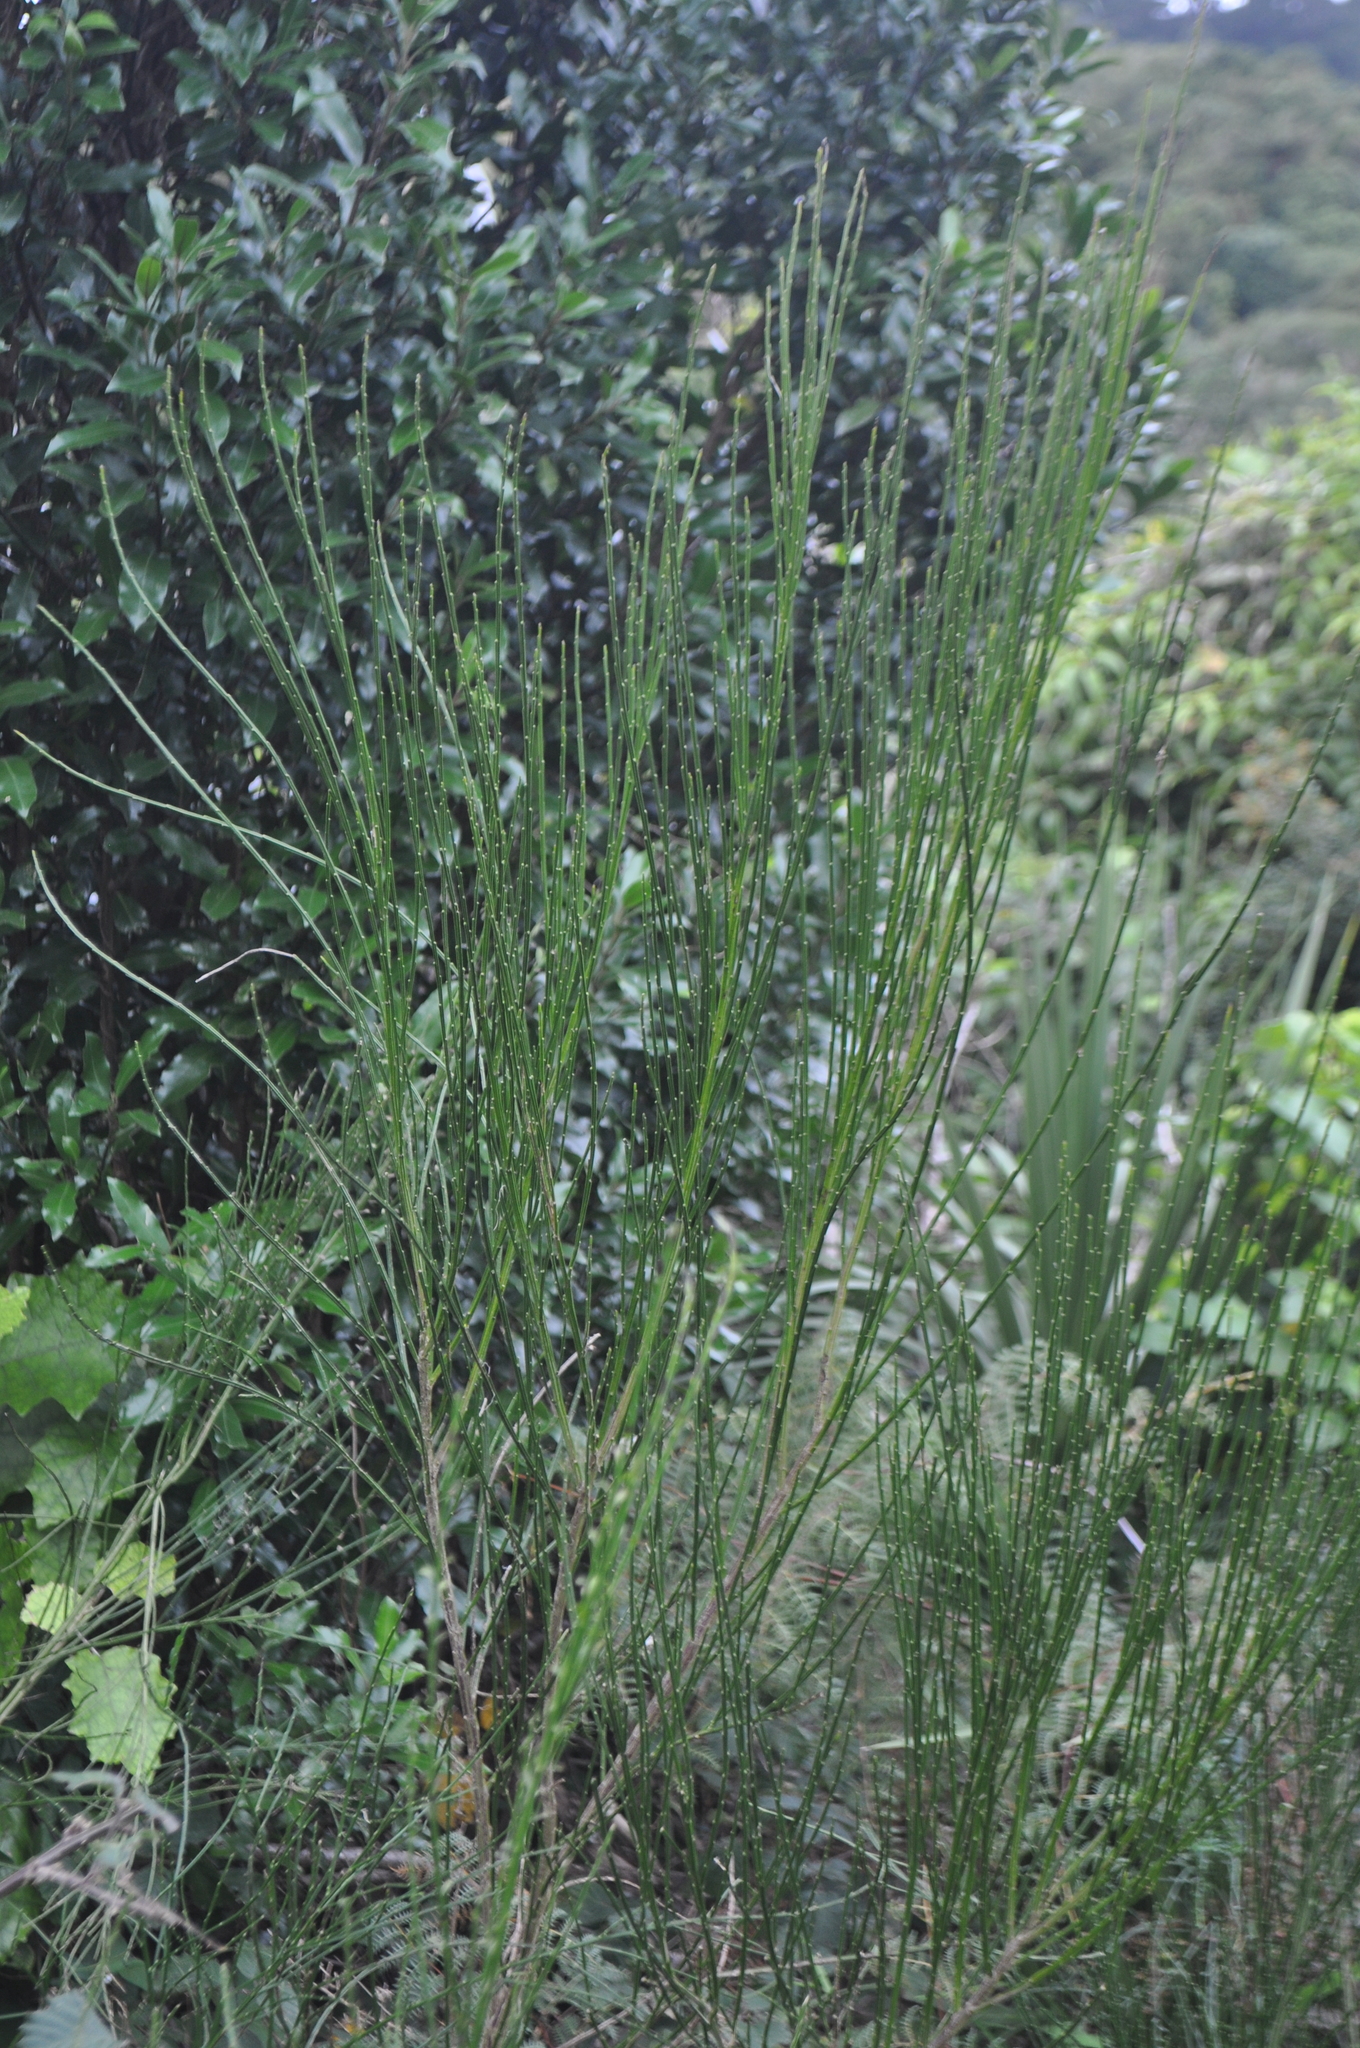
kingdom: Plantae
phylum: Tracheophyta
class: Magnoliopsida
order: Fabales
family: Fabaceae
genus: Cytisus
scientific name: Cytisus scoparius
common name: Scotch broom
